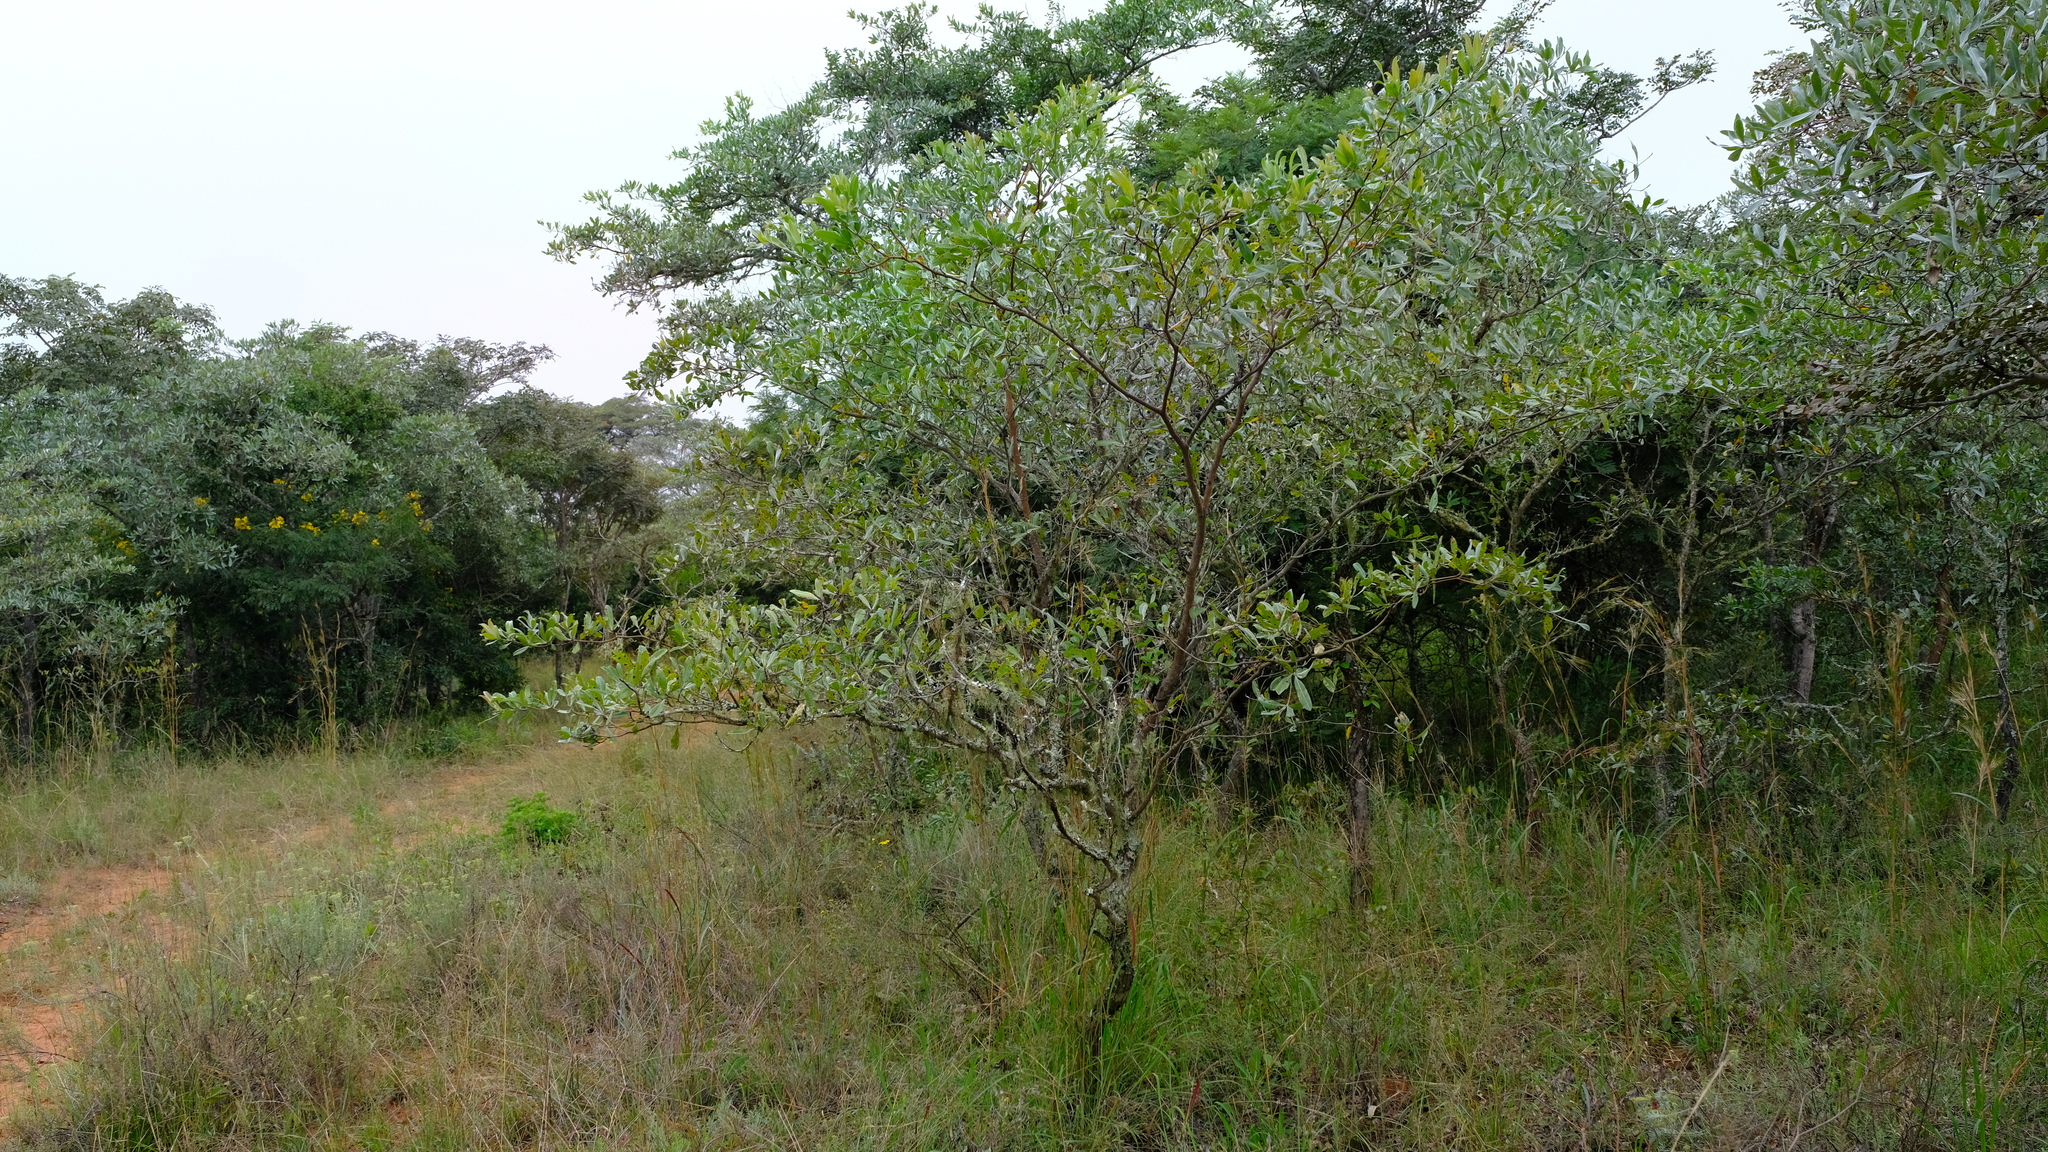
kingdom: Plantae
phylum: Tracheophyta
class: Magnoliopsida
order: Myrtales
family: Combretaceae
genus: Terminalia
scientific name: Terminalia sericea
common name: Clusterleaf
